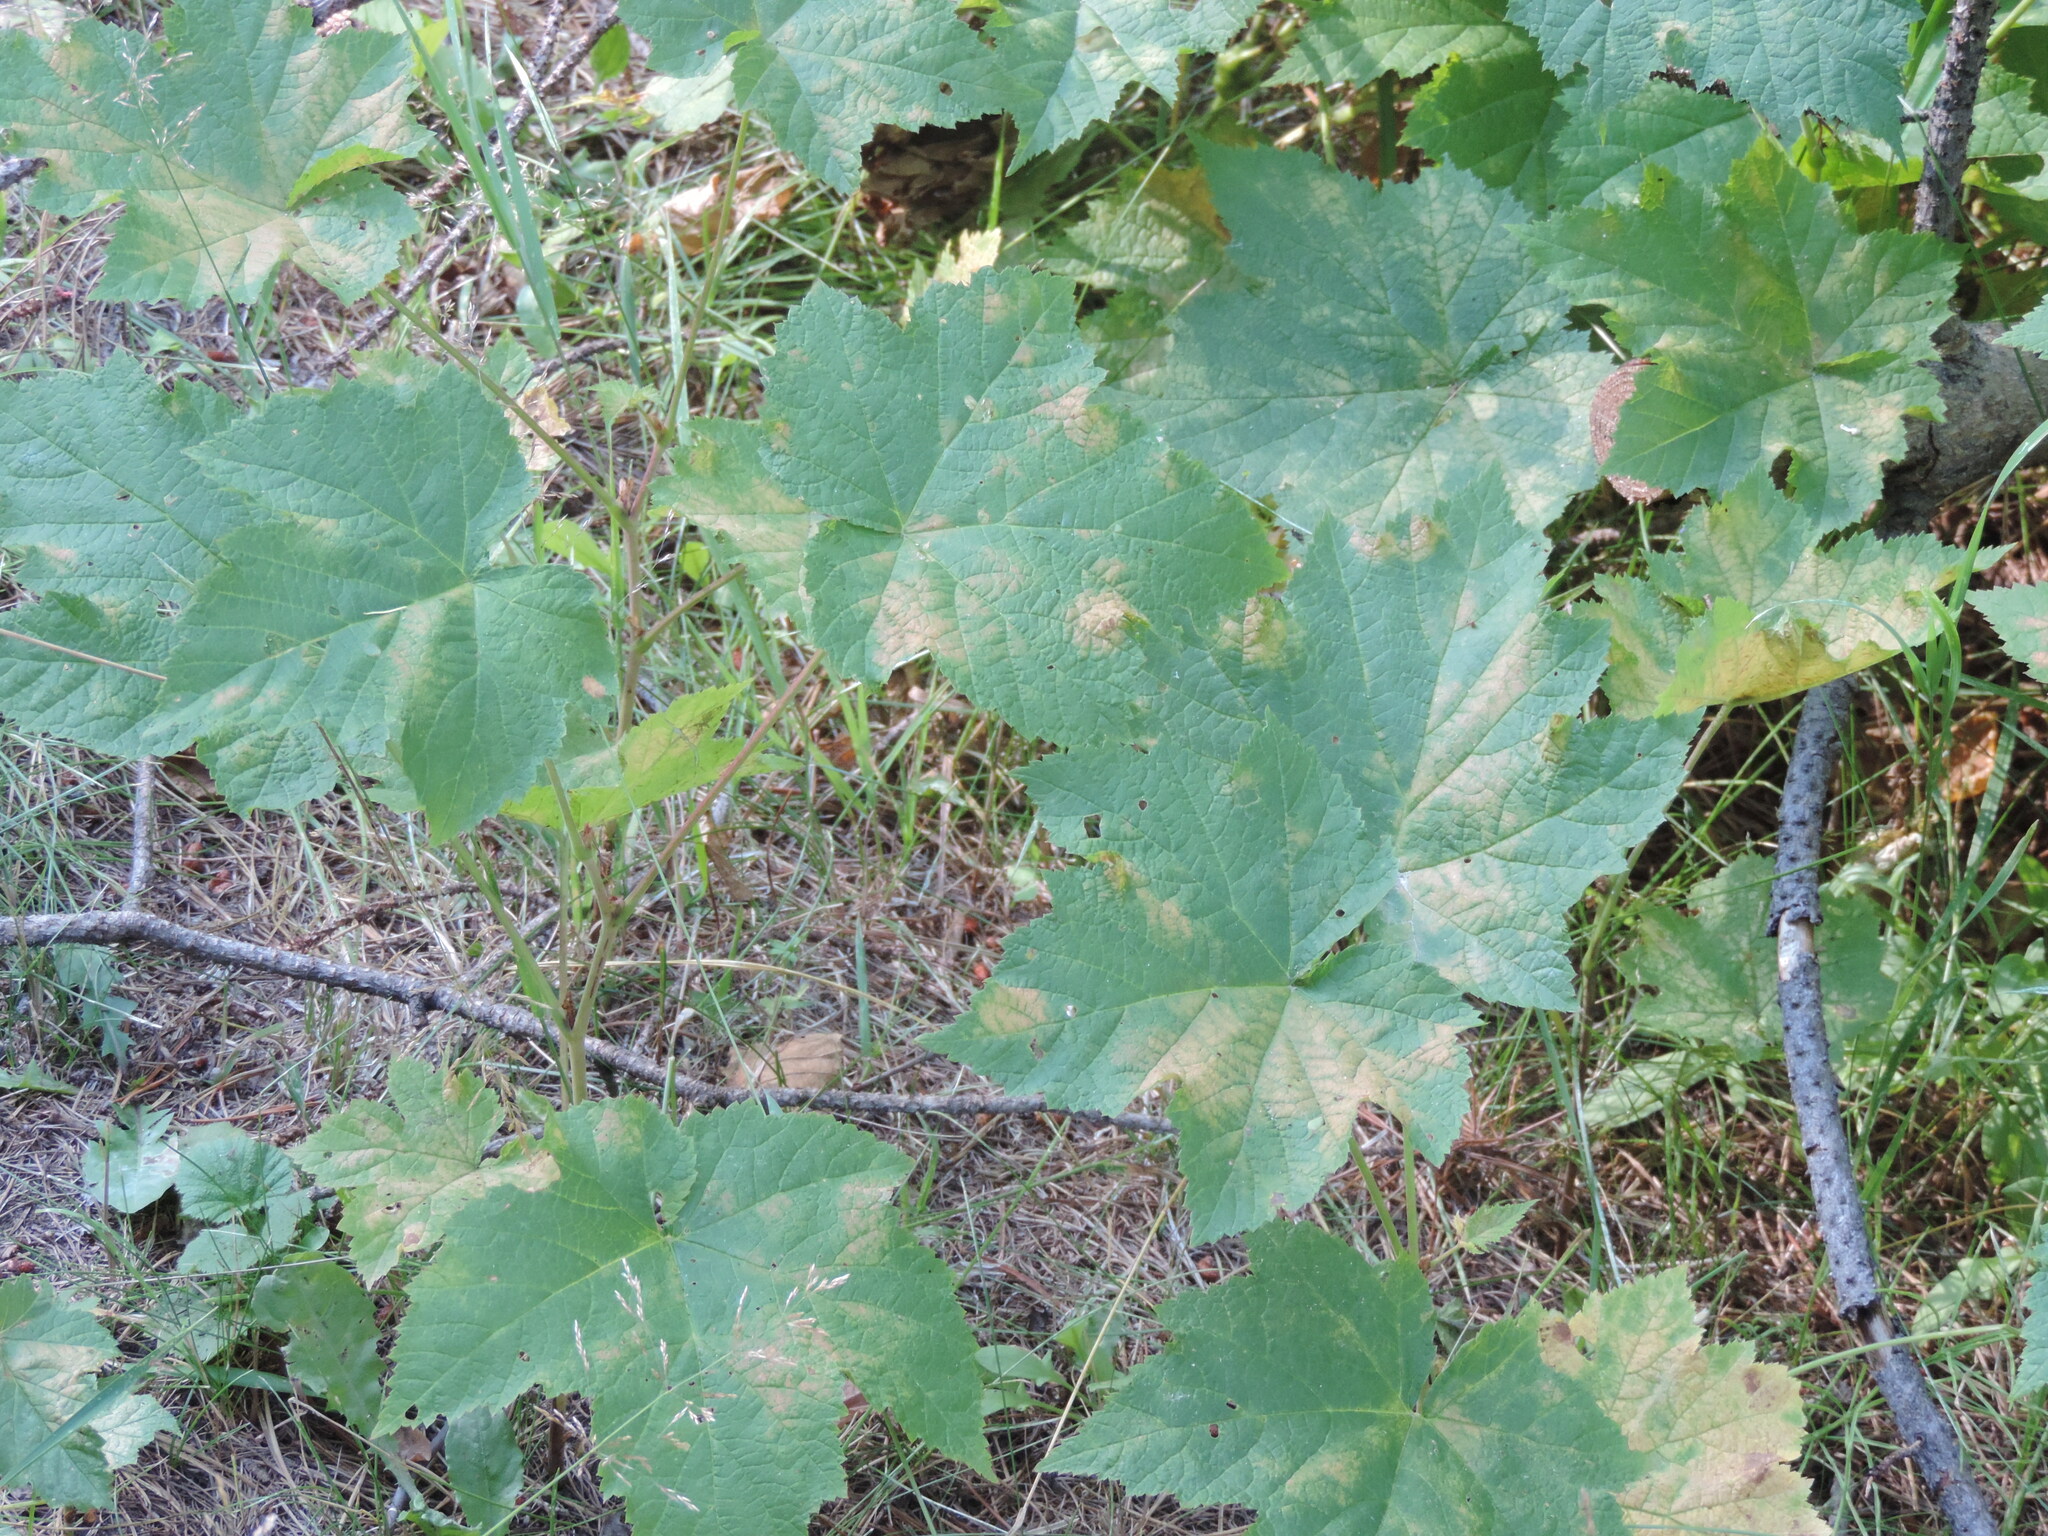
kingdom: Plantae
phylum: Tracheophyta
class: Magnoliopsida
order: Rosales
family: Rosaceae
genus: Rubus
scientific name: Rubus parviflorus
